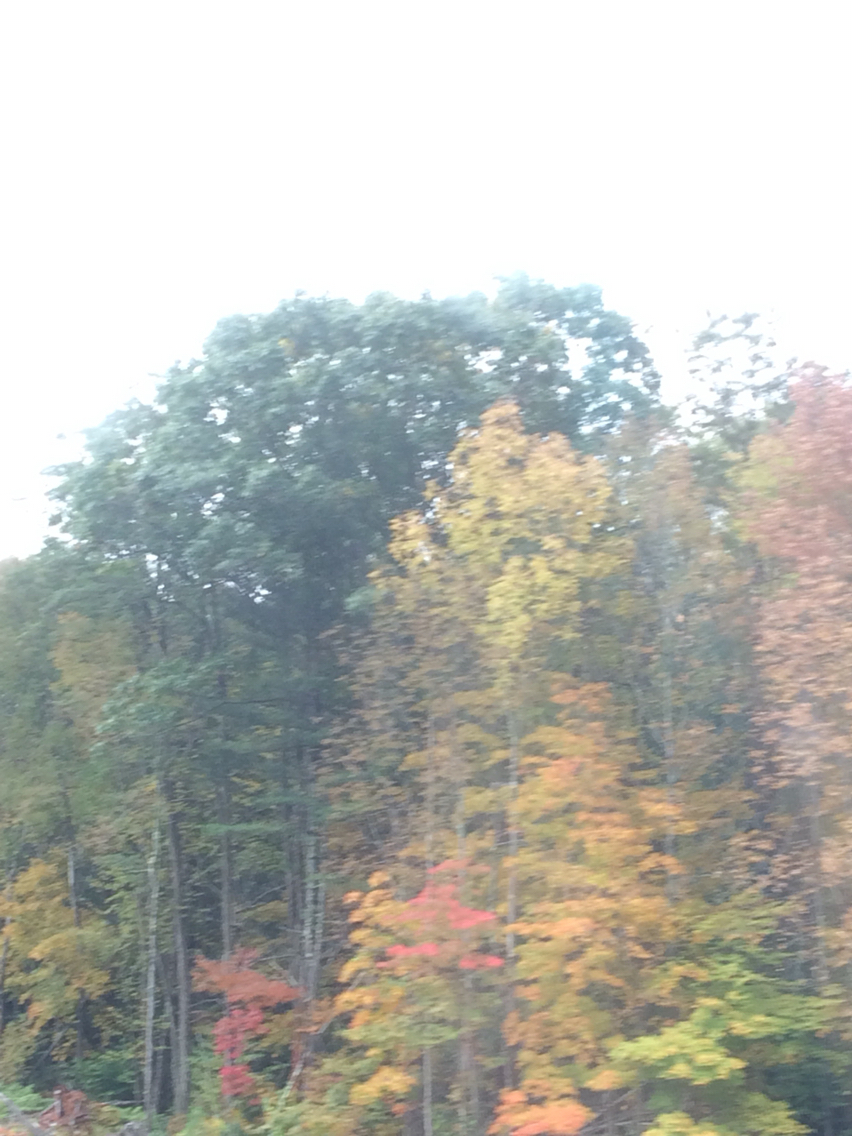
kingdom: Plantae
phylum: Tracheophyta
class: Magnoliopsida
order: Fagales
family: Fagaceae
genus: Quercus
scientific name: Quercus rubra
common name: Red oak
